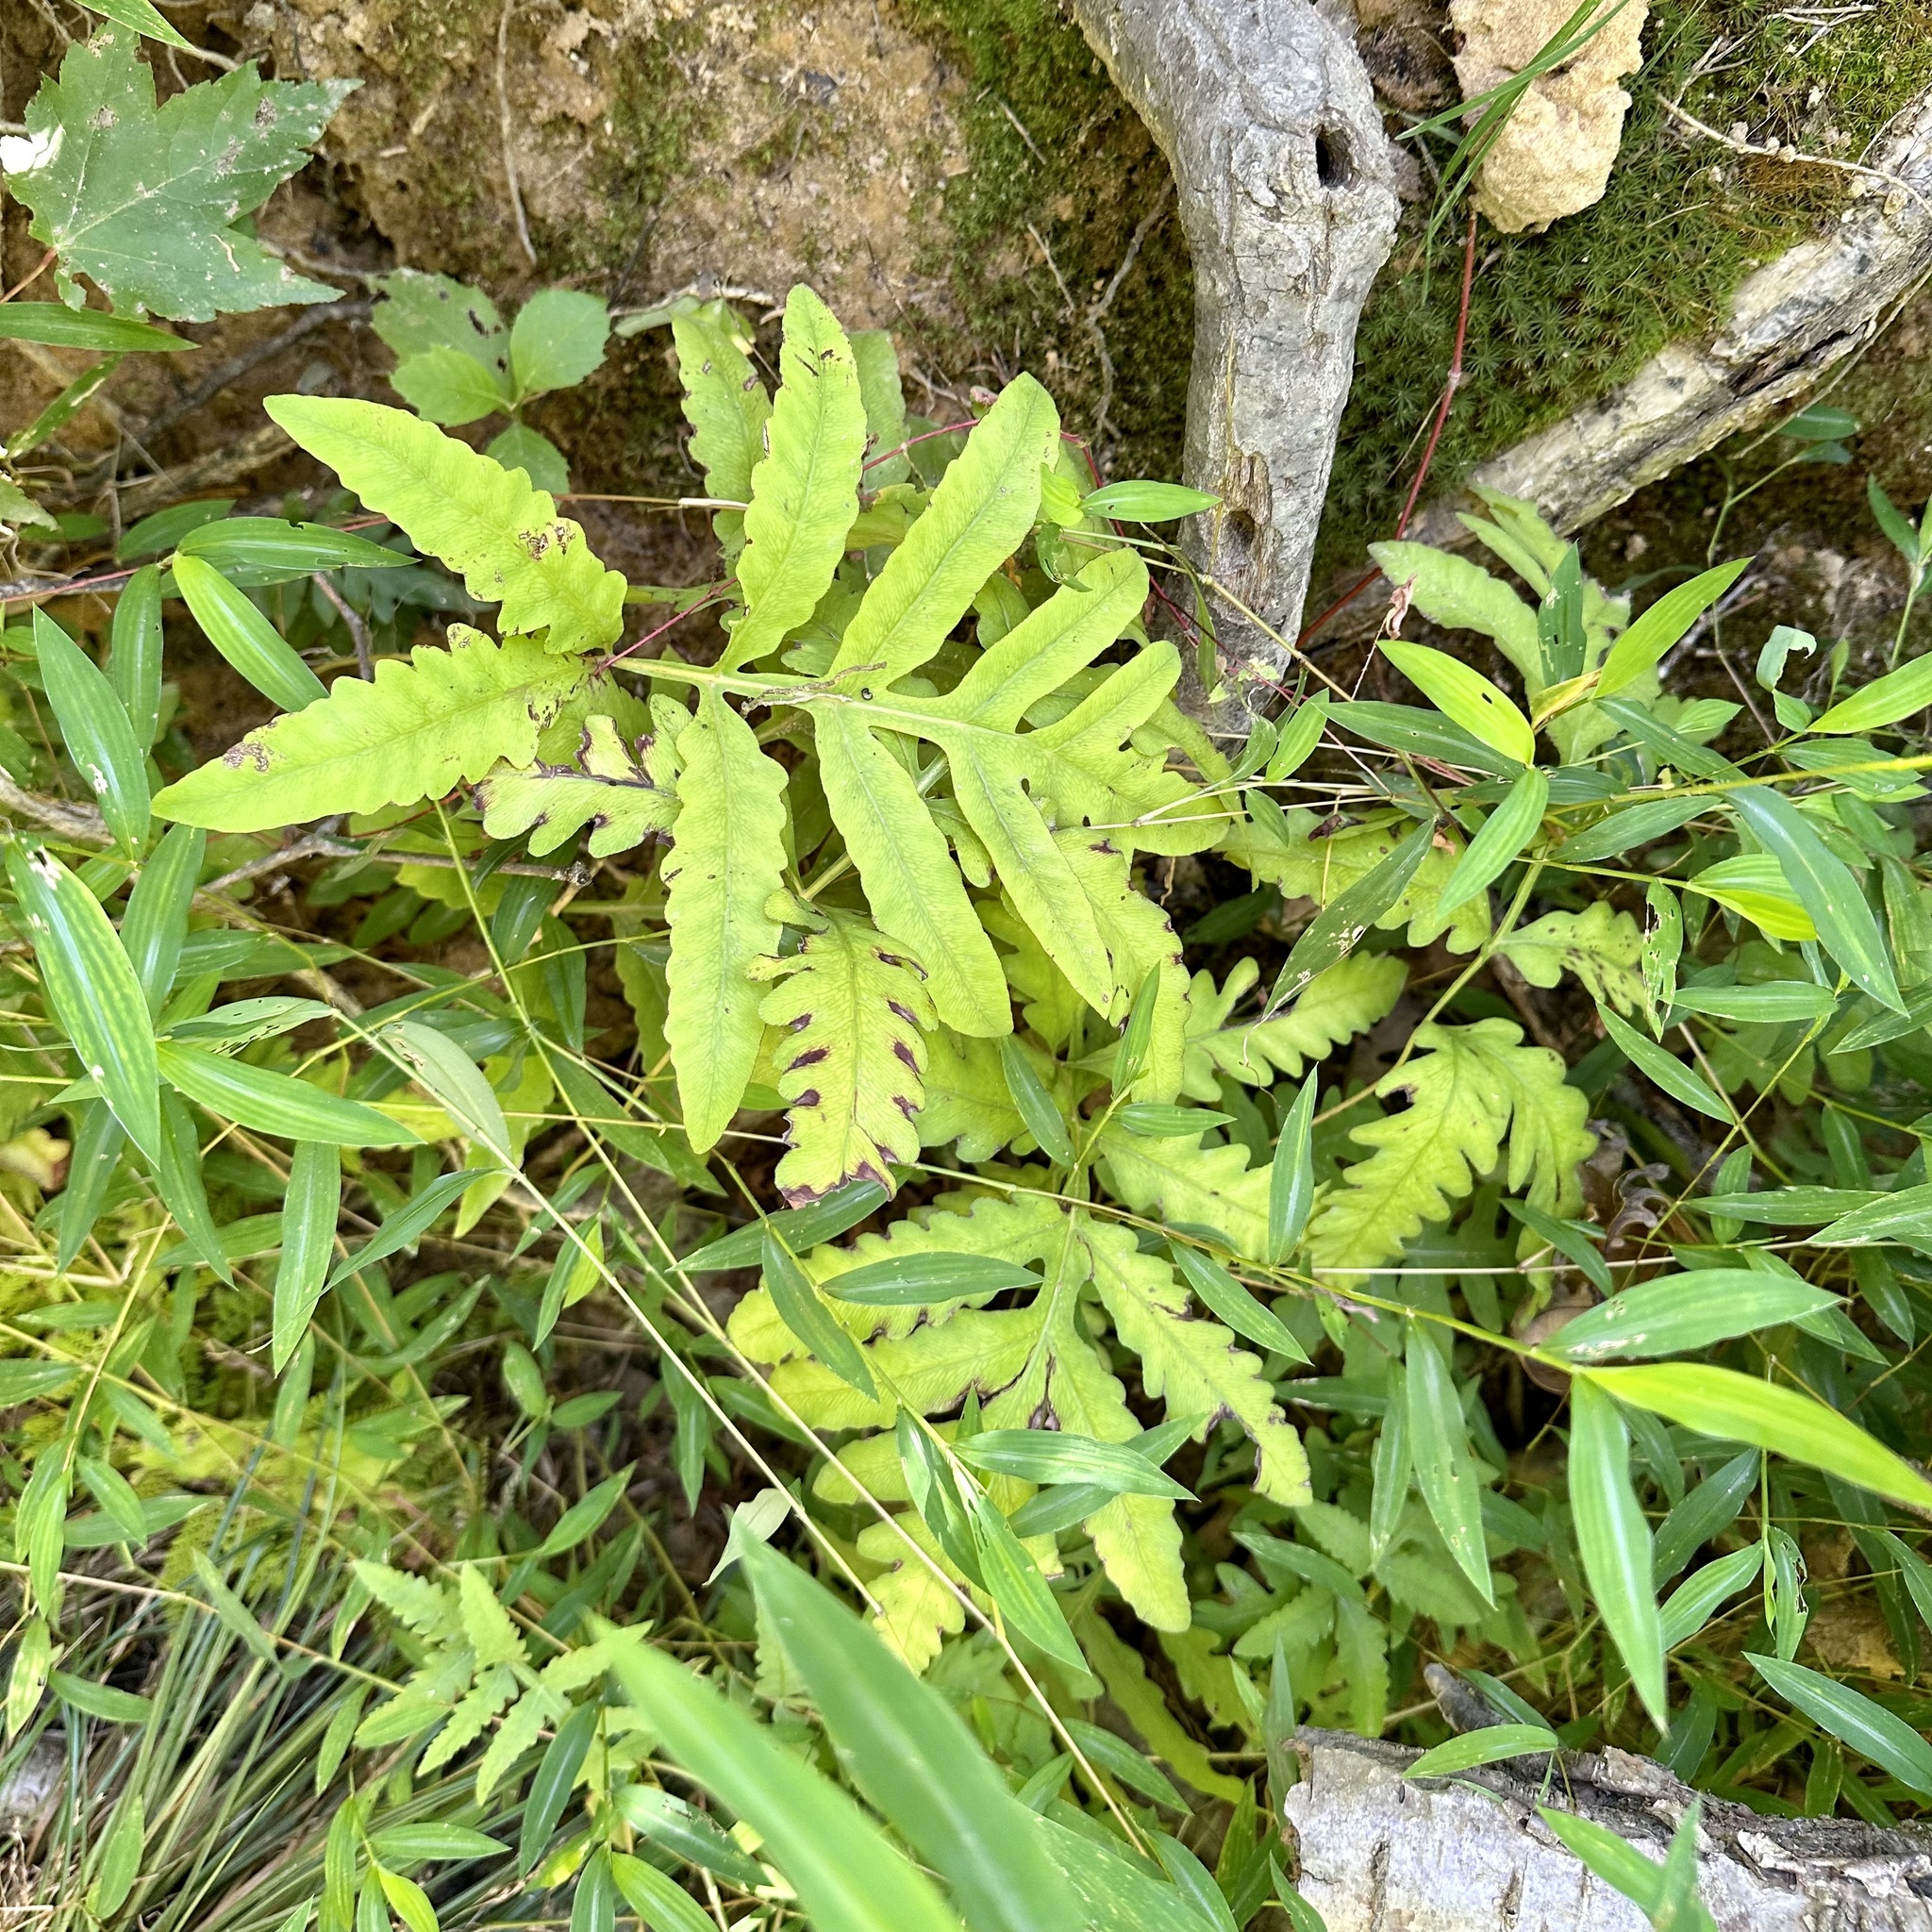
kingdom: Plantae
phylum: Tracheophyta
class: Polypodiopsida
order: Polypodiales
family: Onocleaceae
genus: Onoclea
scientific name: Onoclea sensibilis
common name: Sensitive fern
